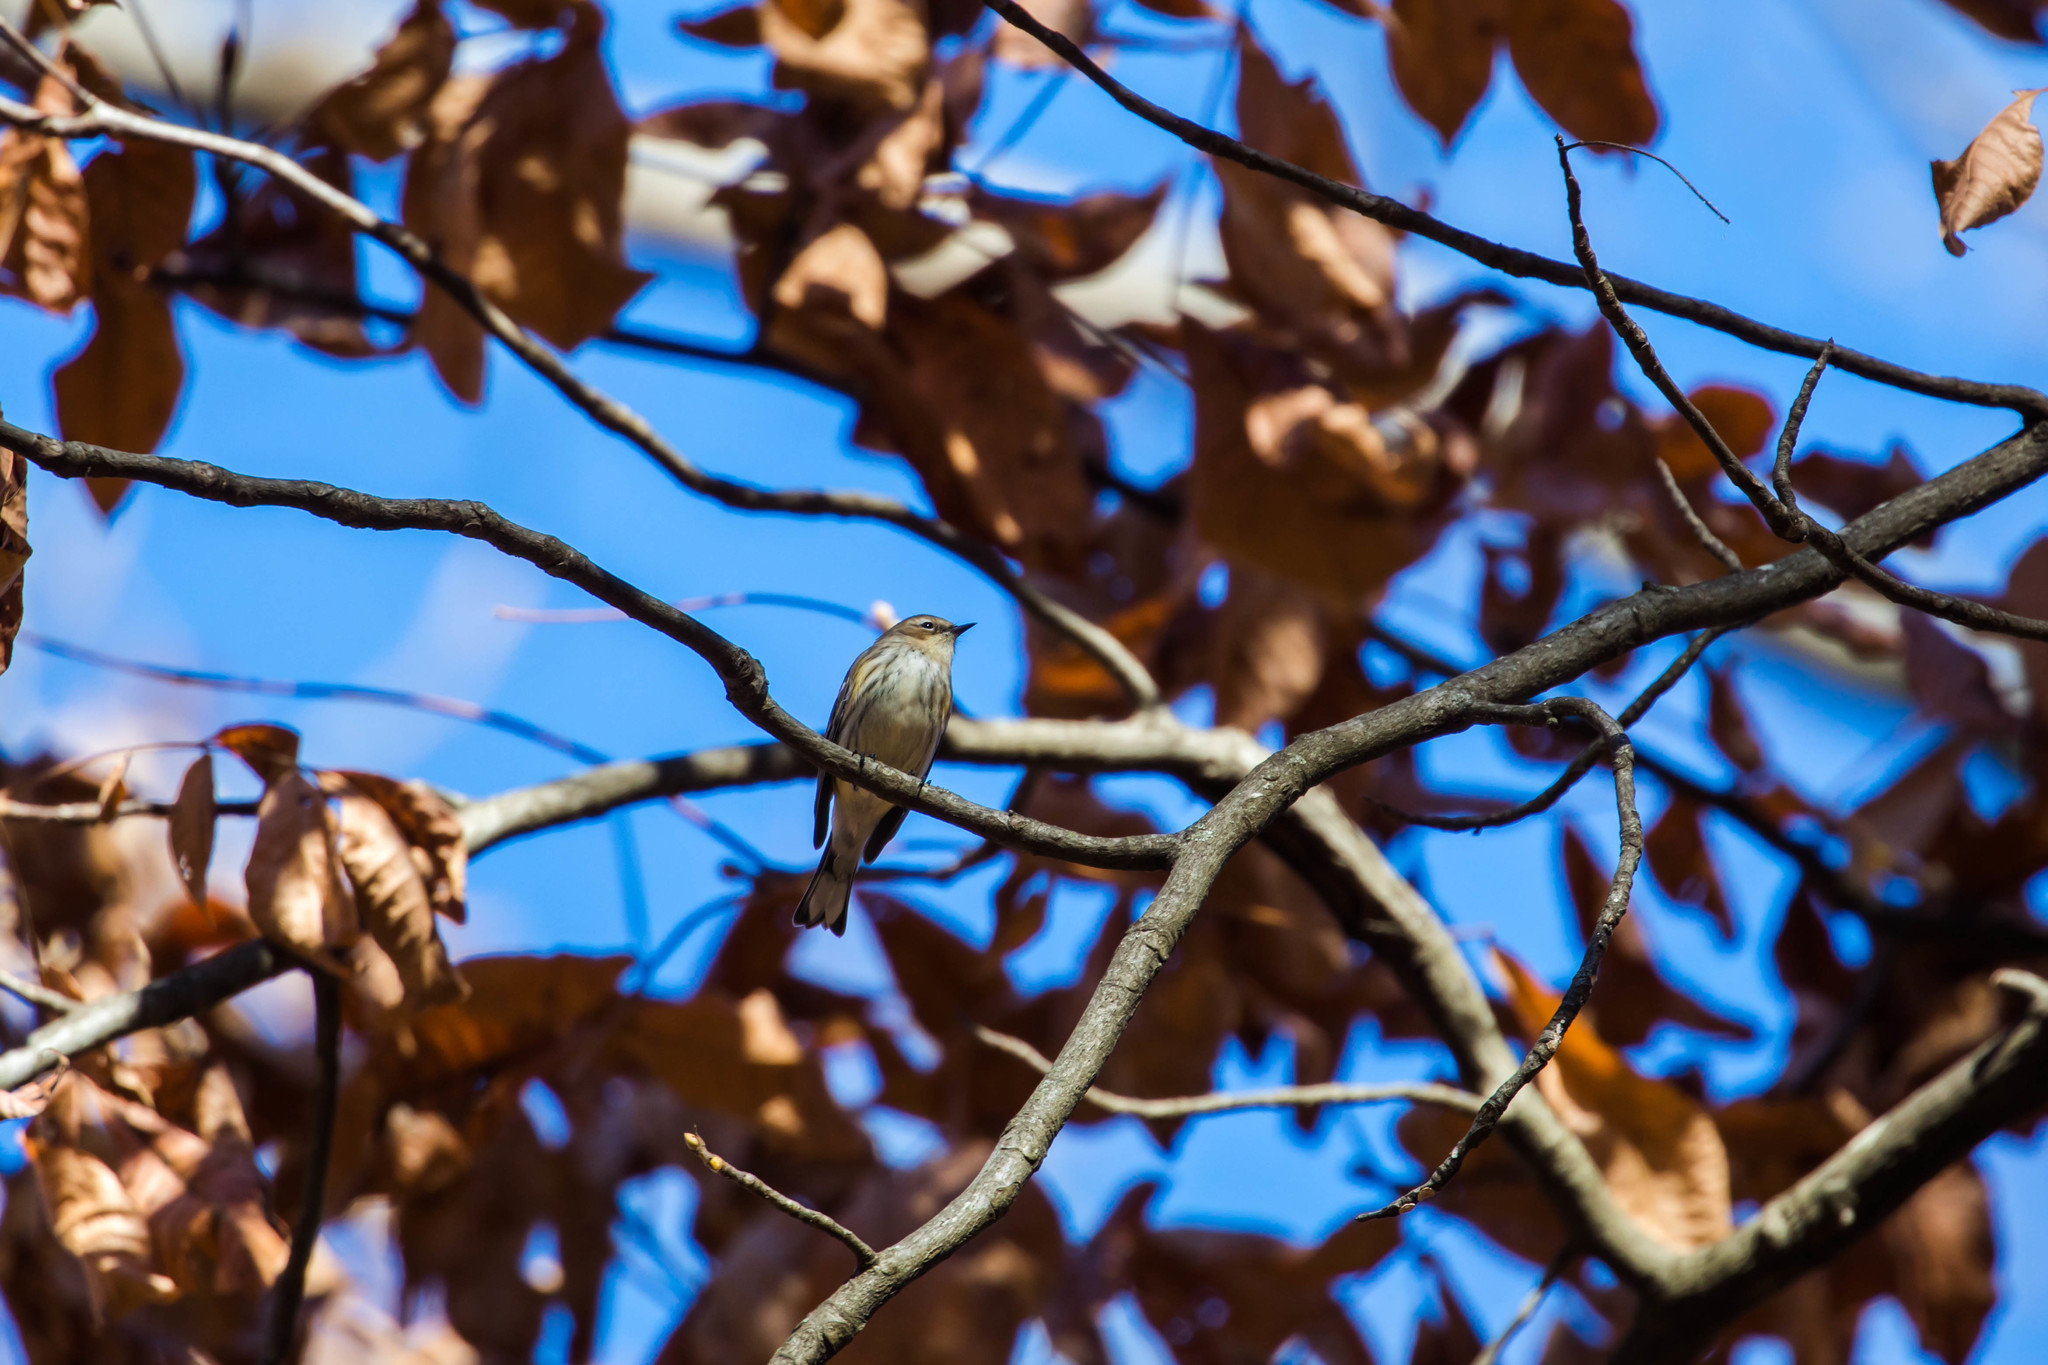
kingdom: Animalia
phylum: Chordata
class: Aves
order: Passeriformes
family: Parulidae
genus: Setophaga
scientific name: Setophaga coronata
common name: Myrtle warbler
